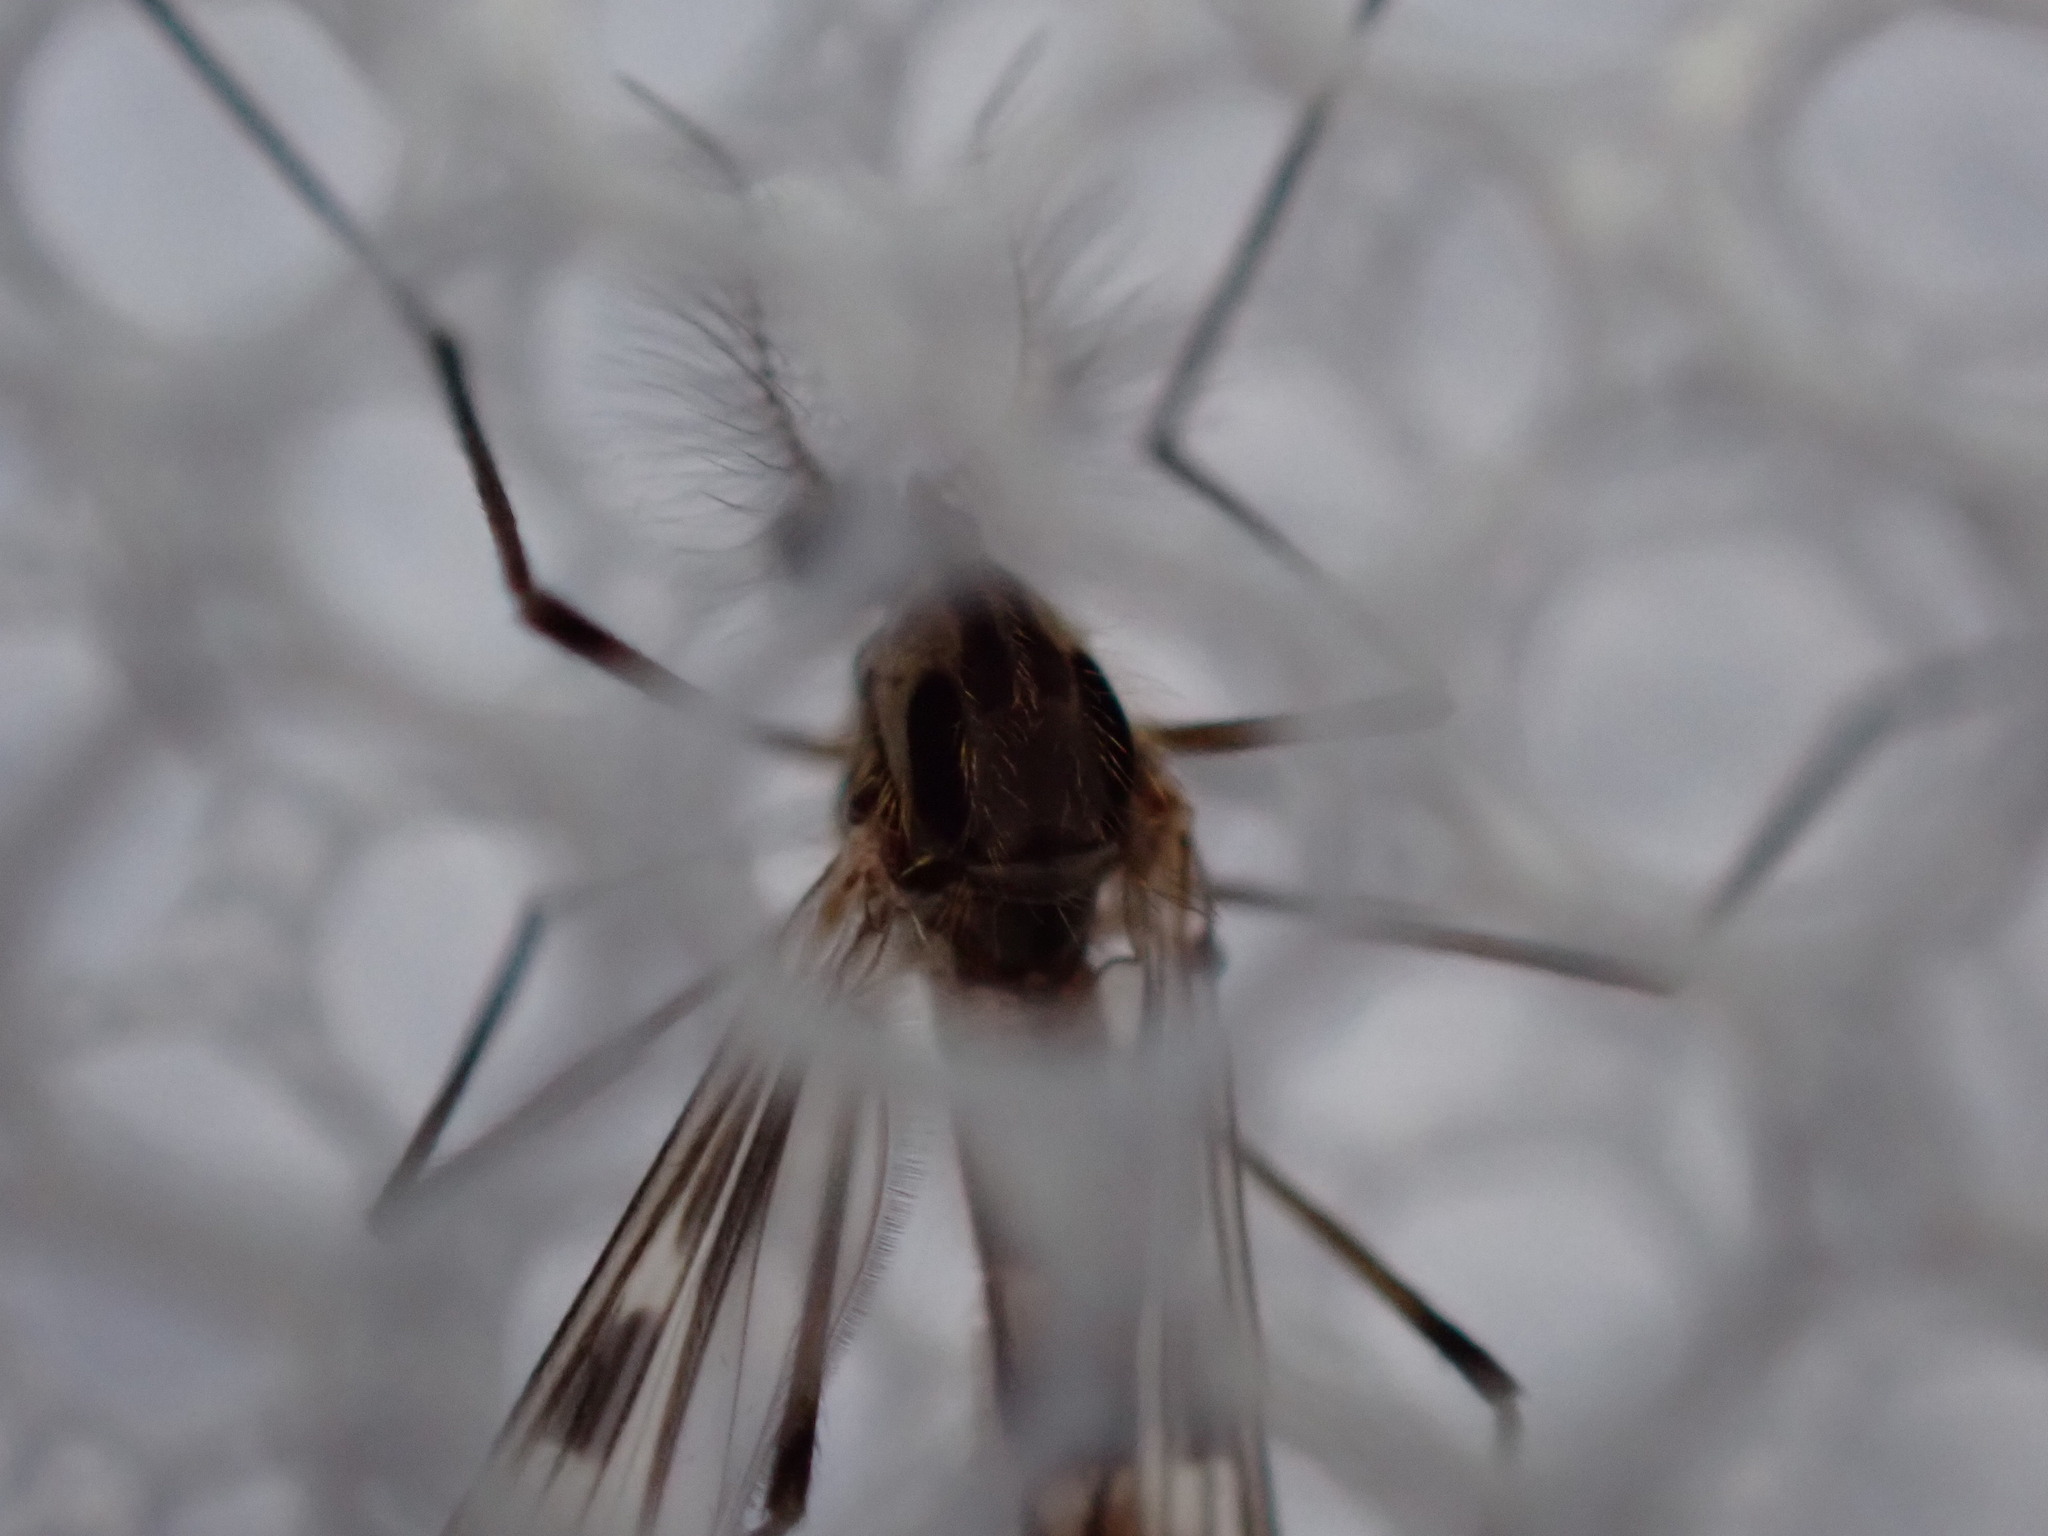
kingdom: Animalia
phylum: Arthropoda
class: Insecta
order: Diptera
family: Chaoboridae
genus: Eucorethra
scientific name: Eucorethra underwoodi
